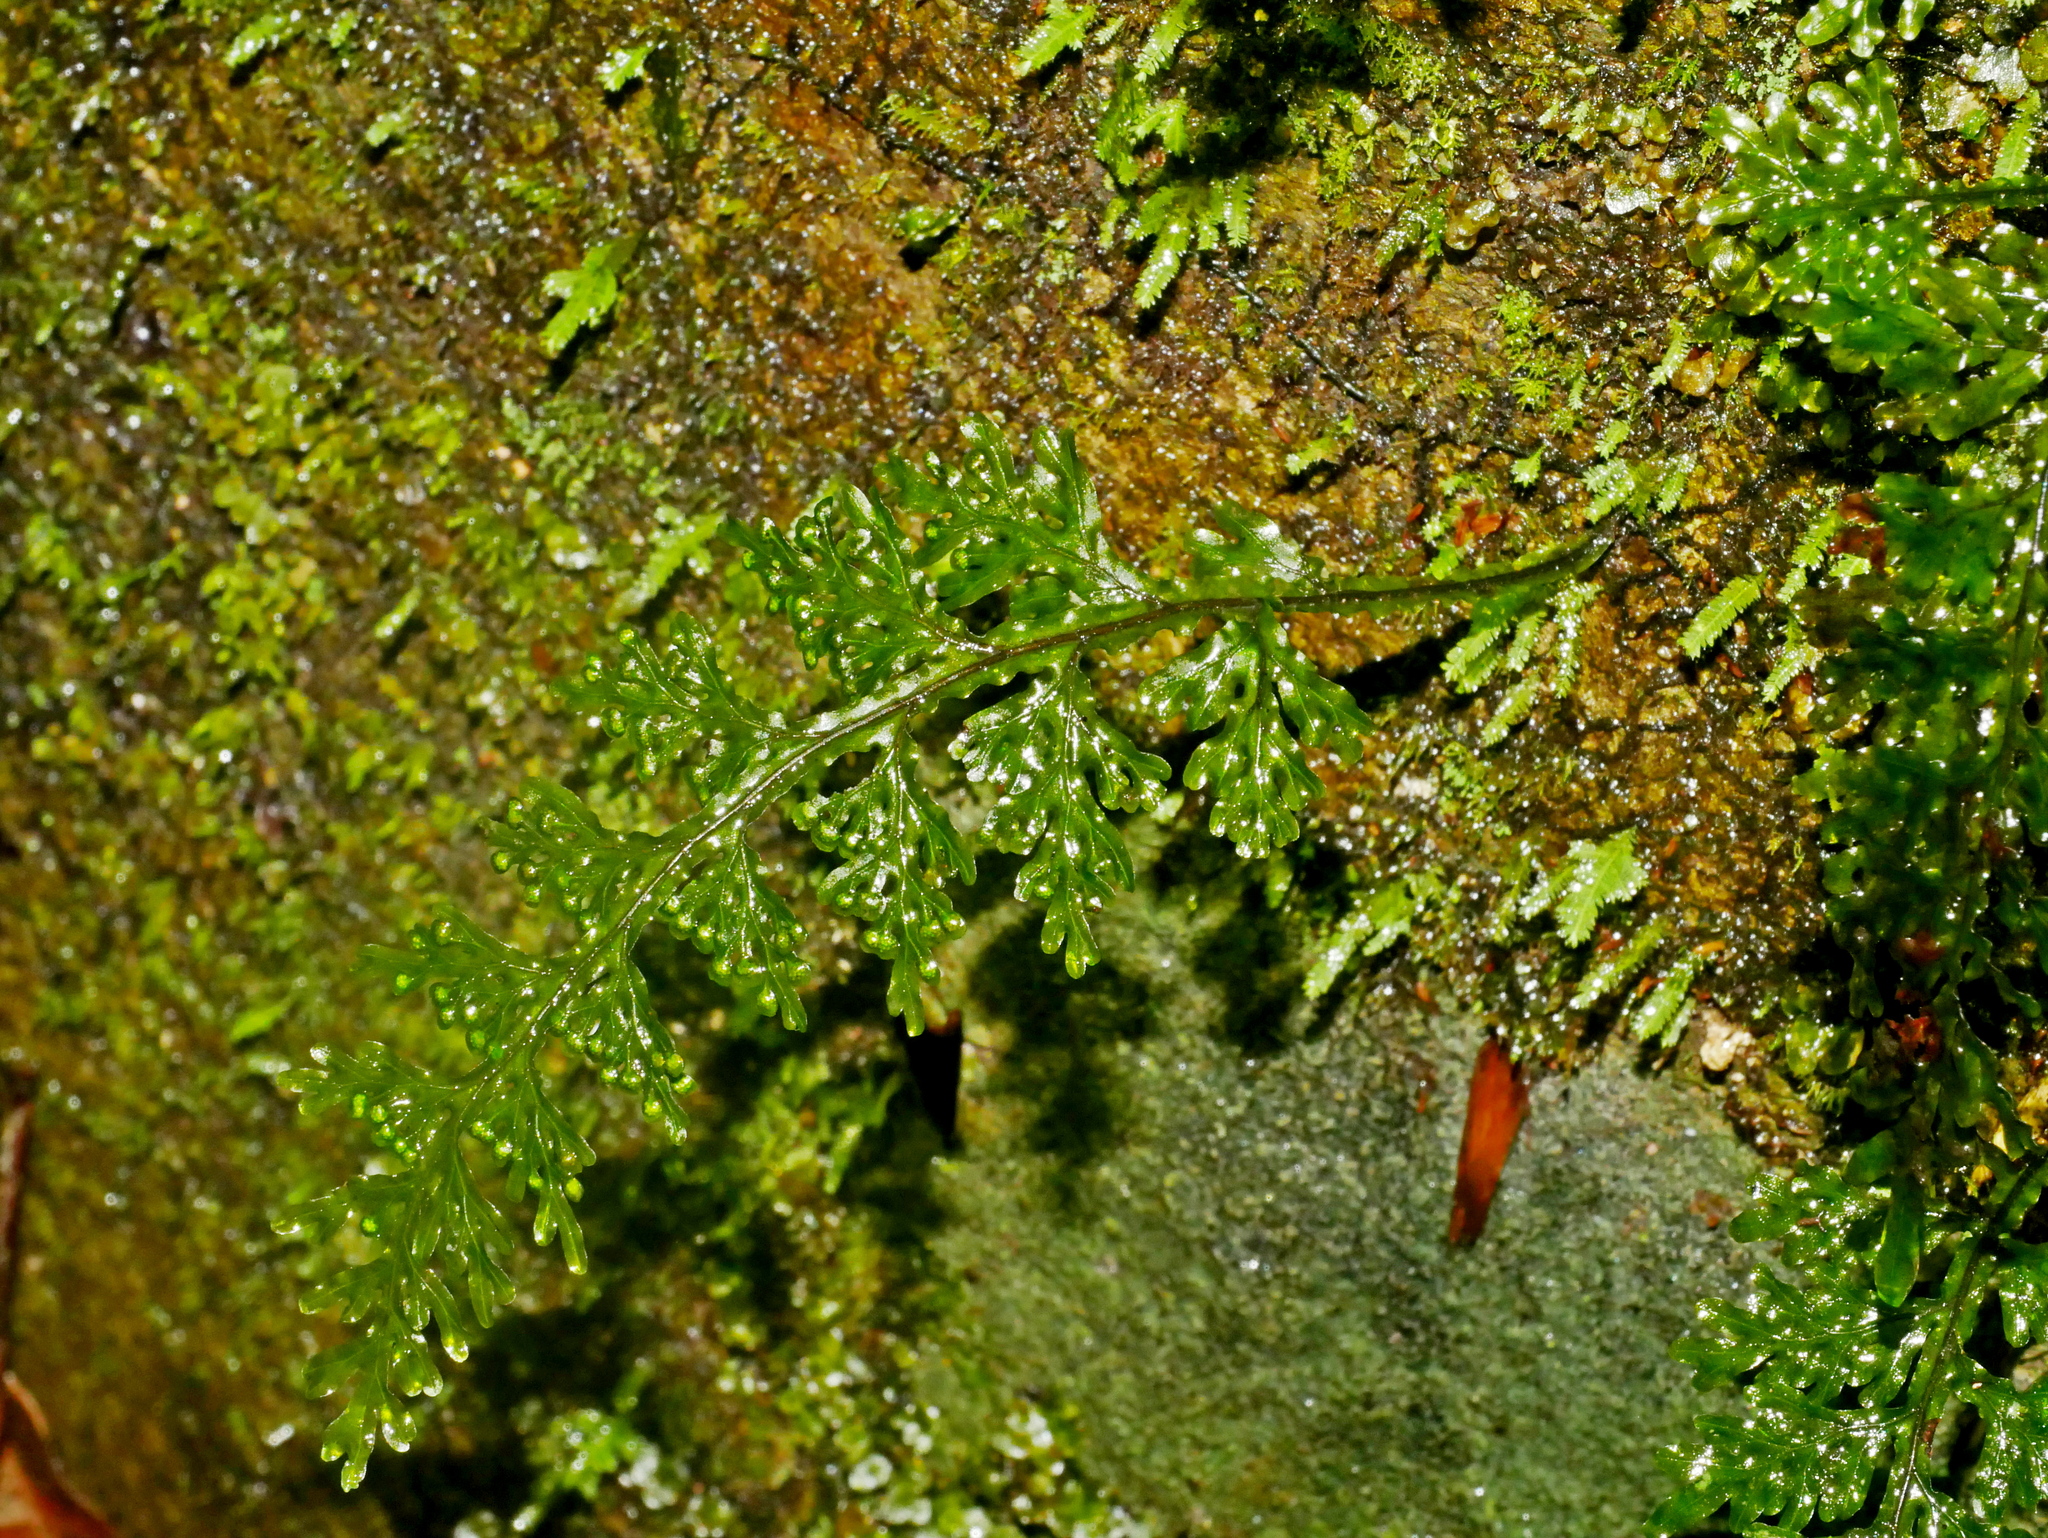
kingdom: Plantae
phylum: Tracheophyta
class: Polypodiopsida
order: Hymenophyllales
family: Hymenophyllaceae
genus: Hymenophyllum
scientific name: Hymenophyllum badium
